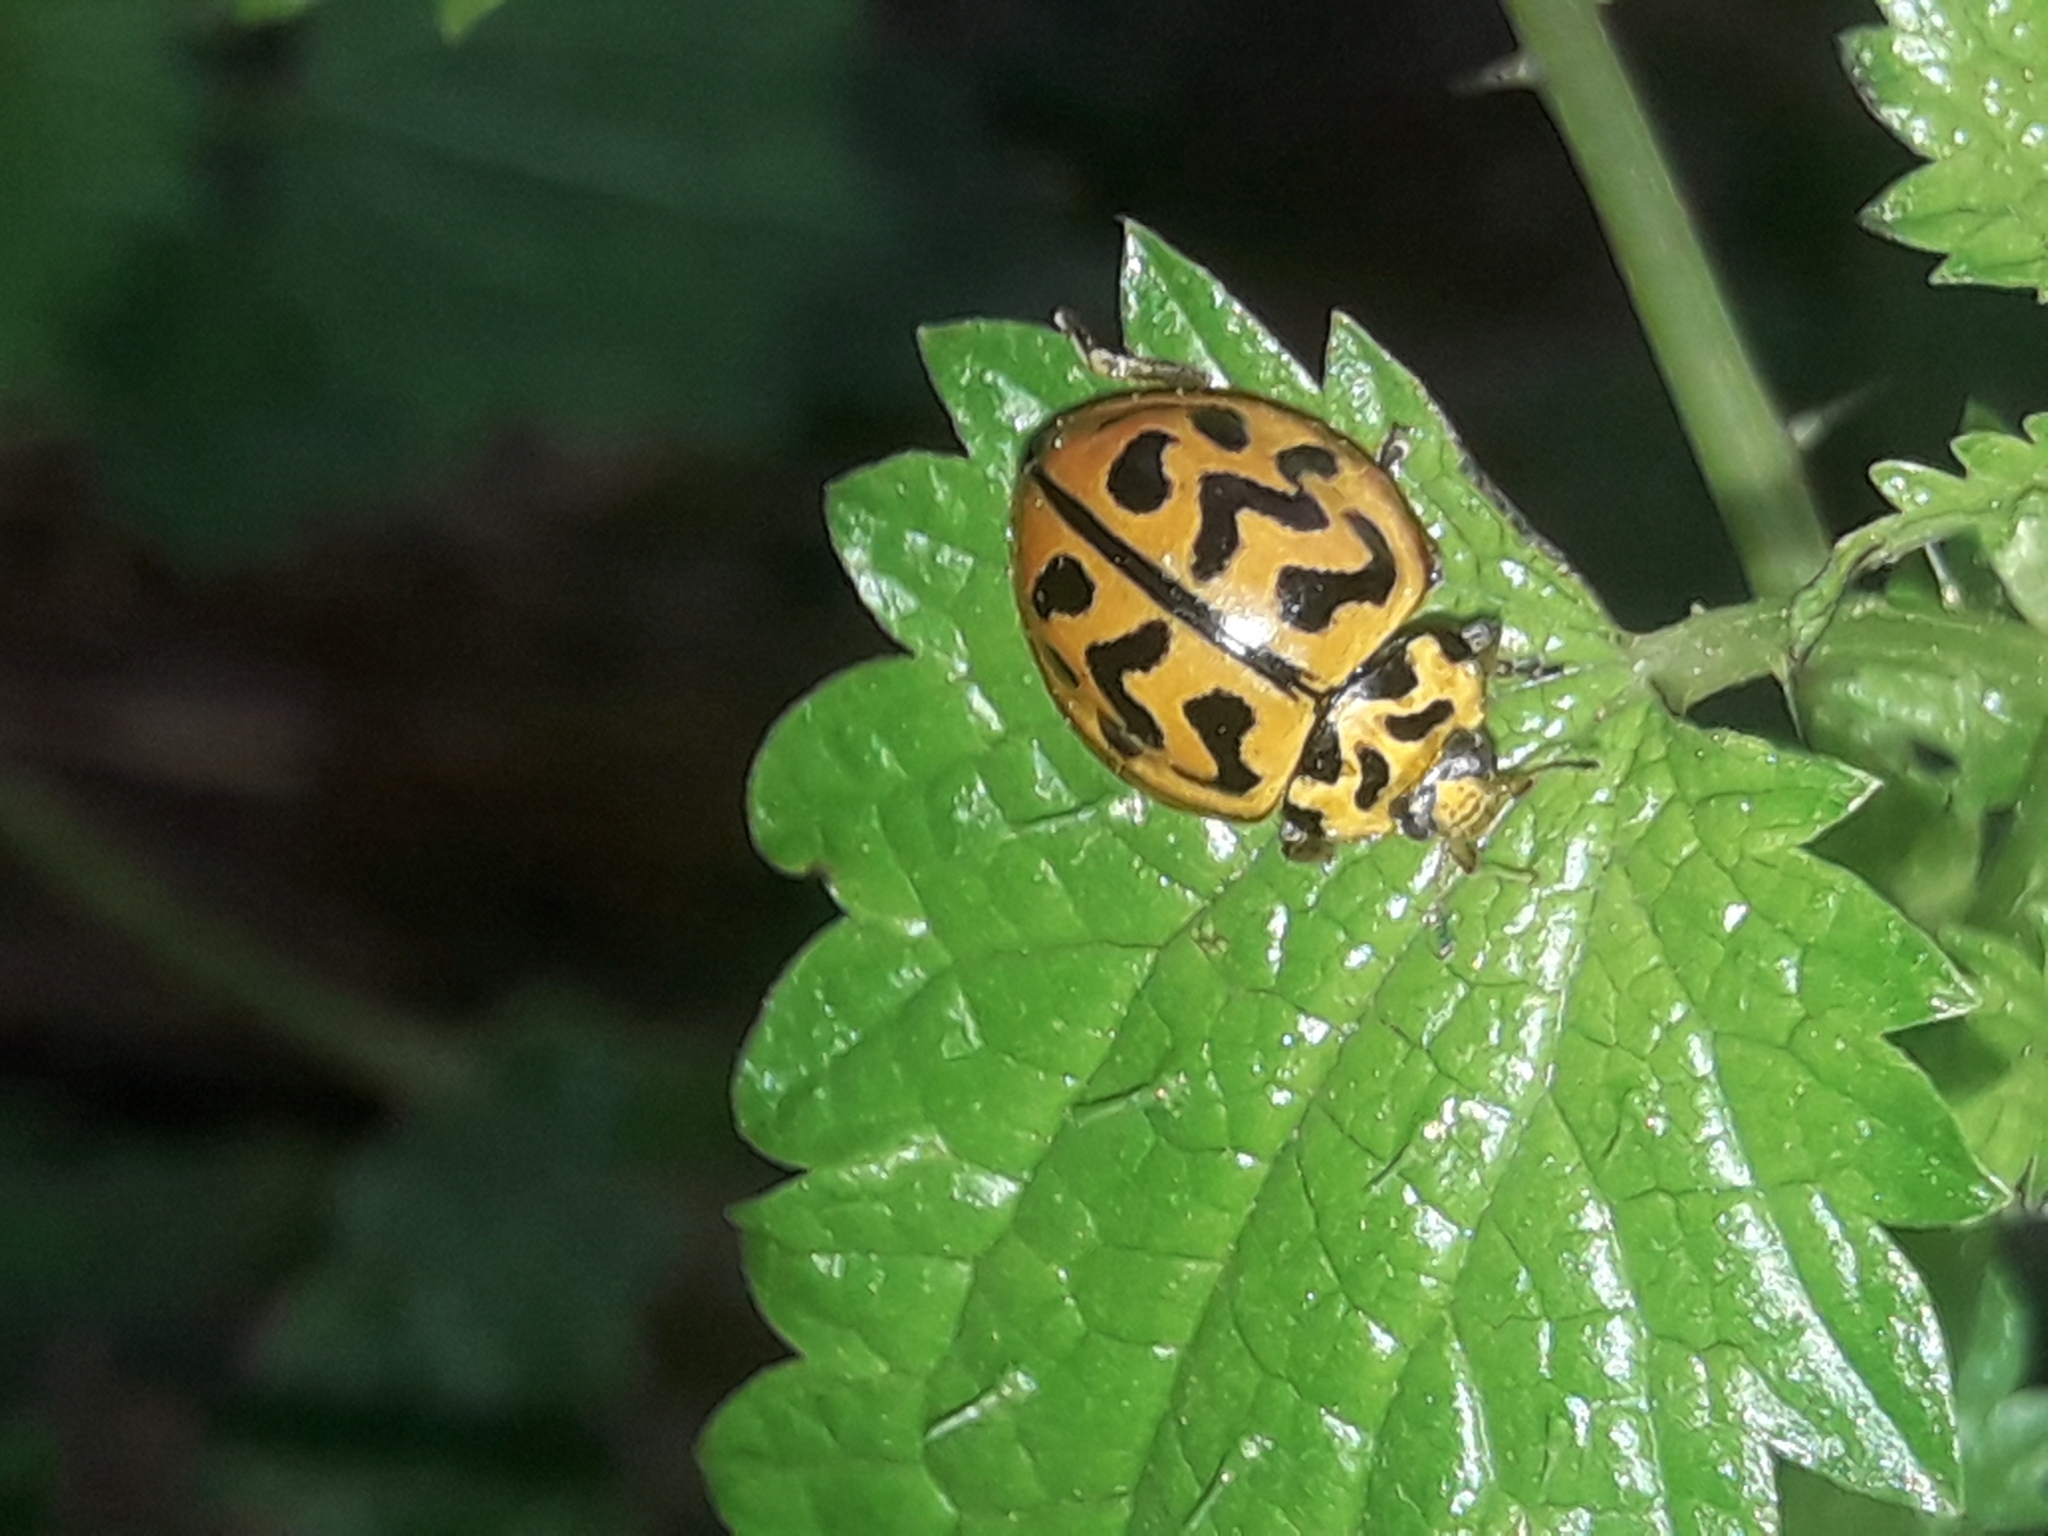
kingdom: Animalia
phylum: Arthropoda
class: Insecta
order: Coleoptera
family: Coccinellidae
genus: Cleobora
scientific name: Cleobora
